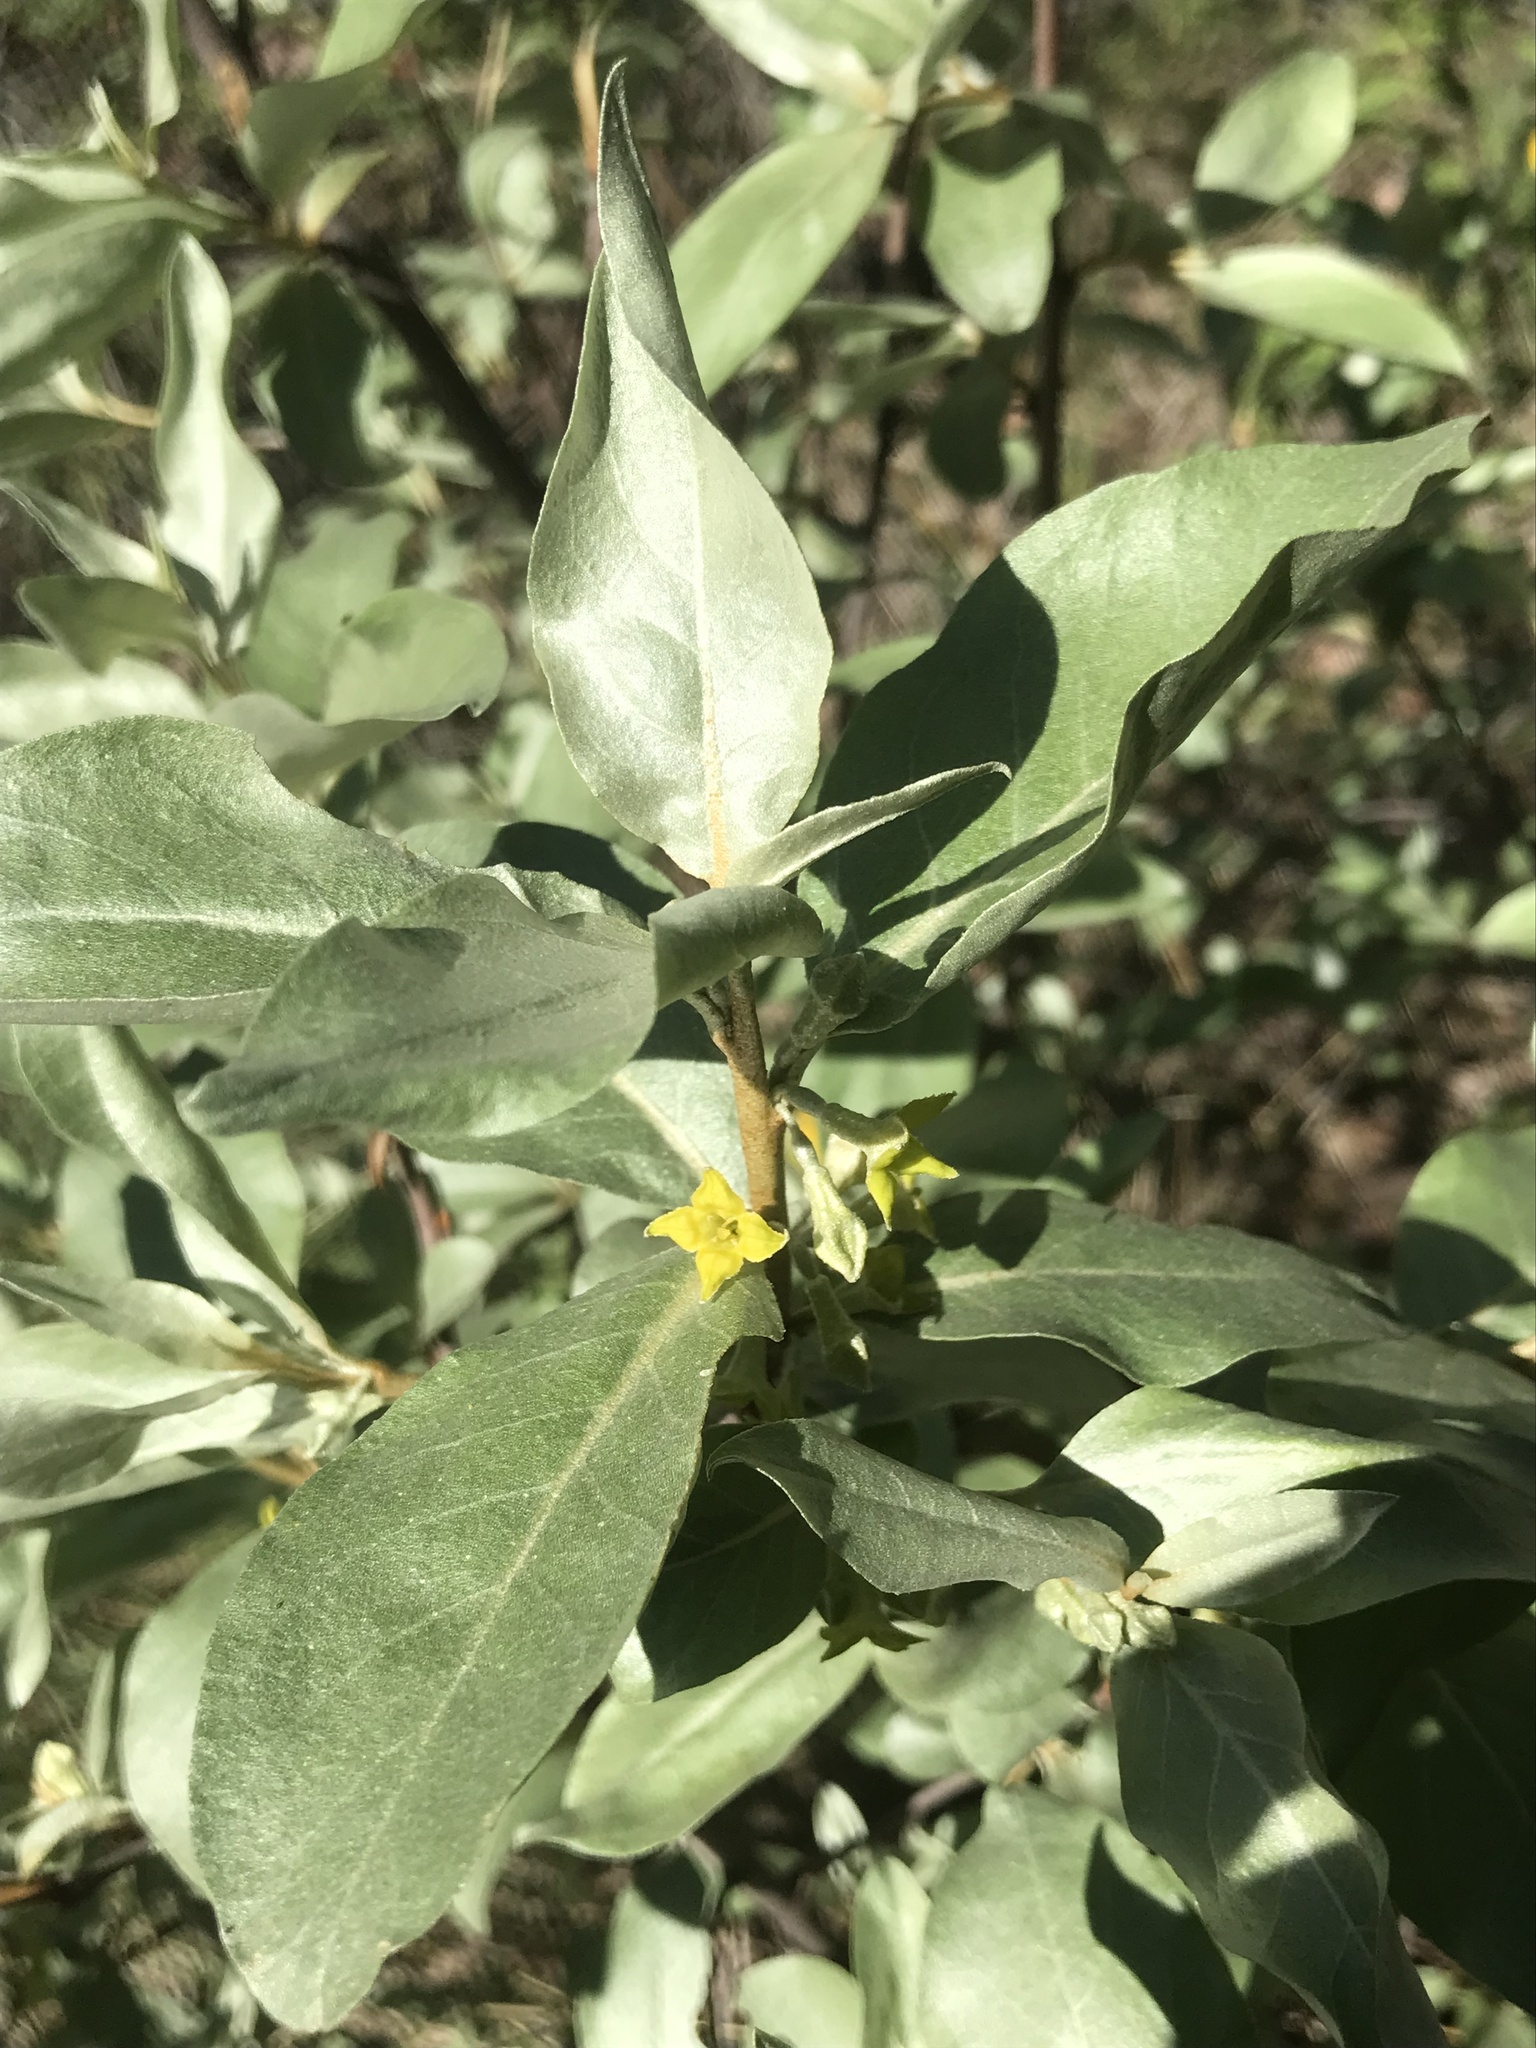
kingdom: Plantae
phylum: Tracheophyta
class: Magnoliopsida
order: Rosales
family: Elaeagnaceae
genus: Elaeagnus
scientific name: Elaeagnus angustifolia
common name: Russian olive
